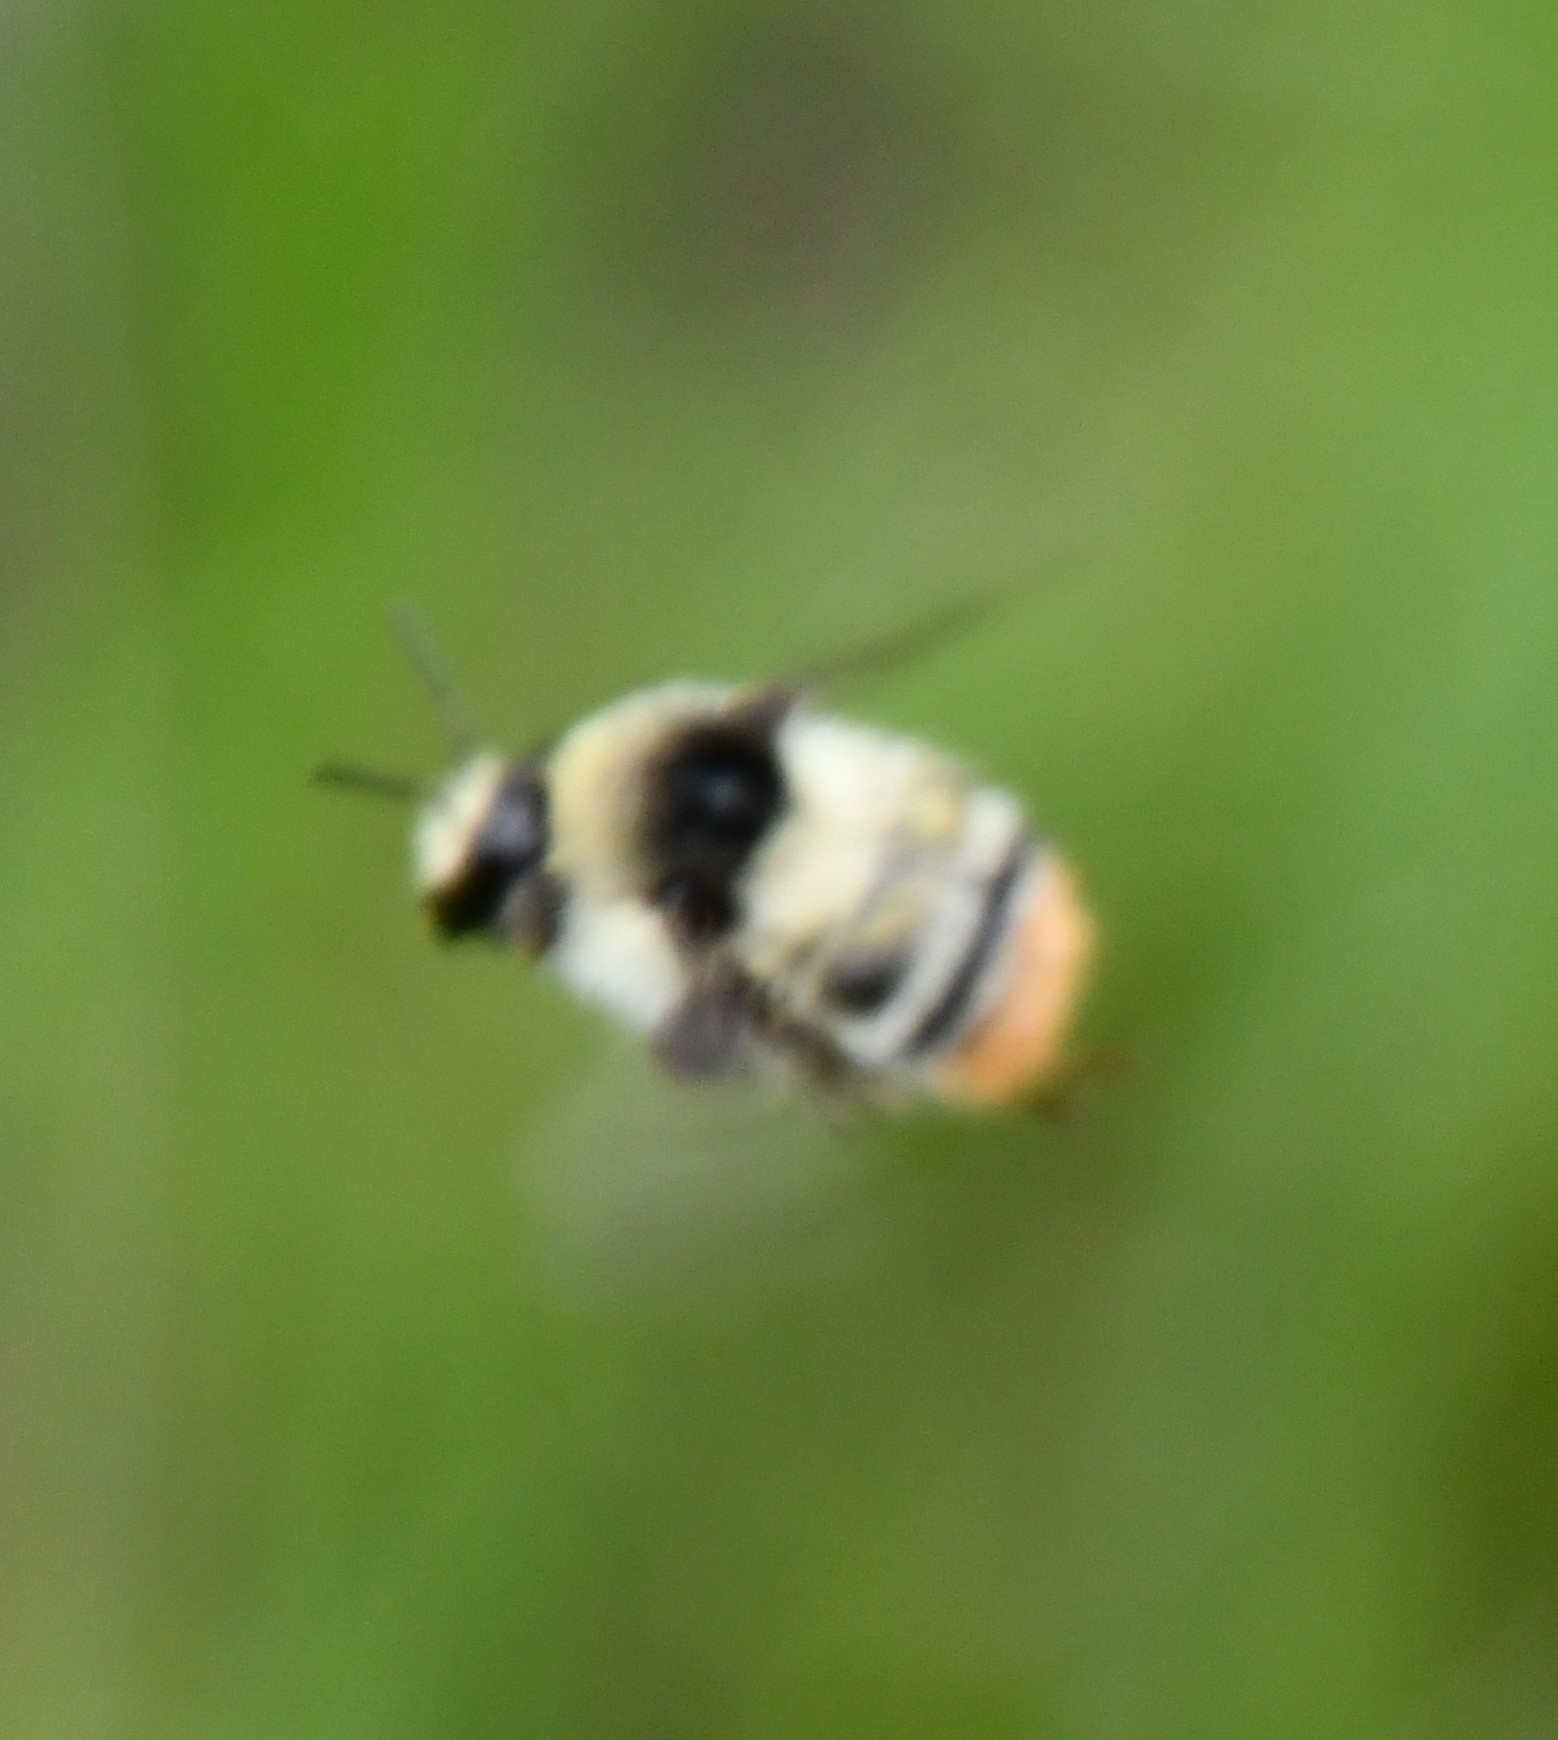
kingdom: Animalia
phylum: Arthropoda
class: Insecta
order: Hymenoptera
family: Apidae
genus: Bombus
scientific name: Bombus sylvarum
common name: Shrill carder bee
